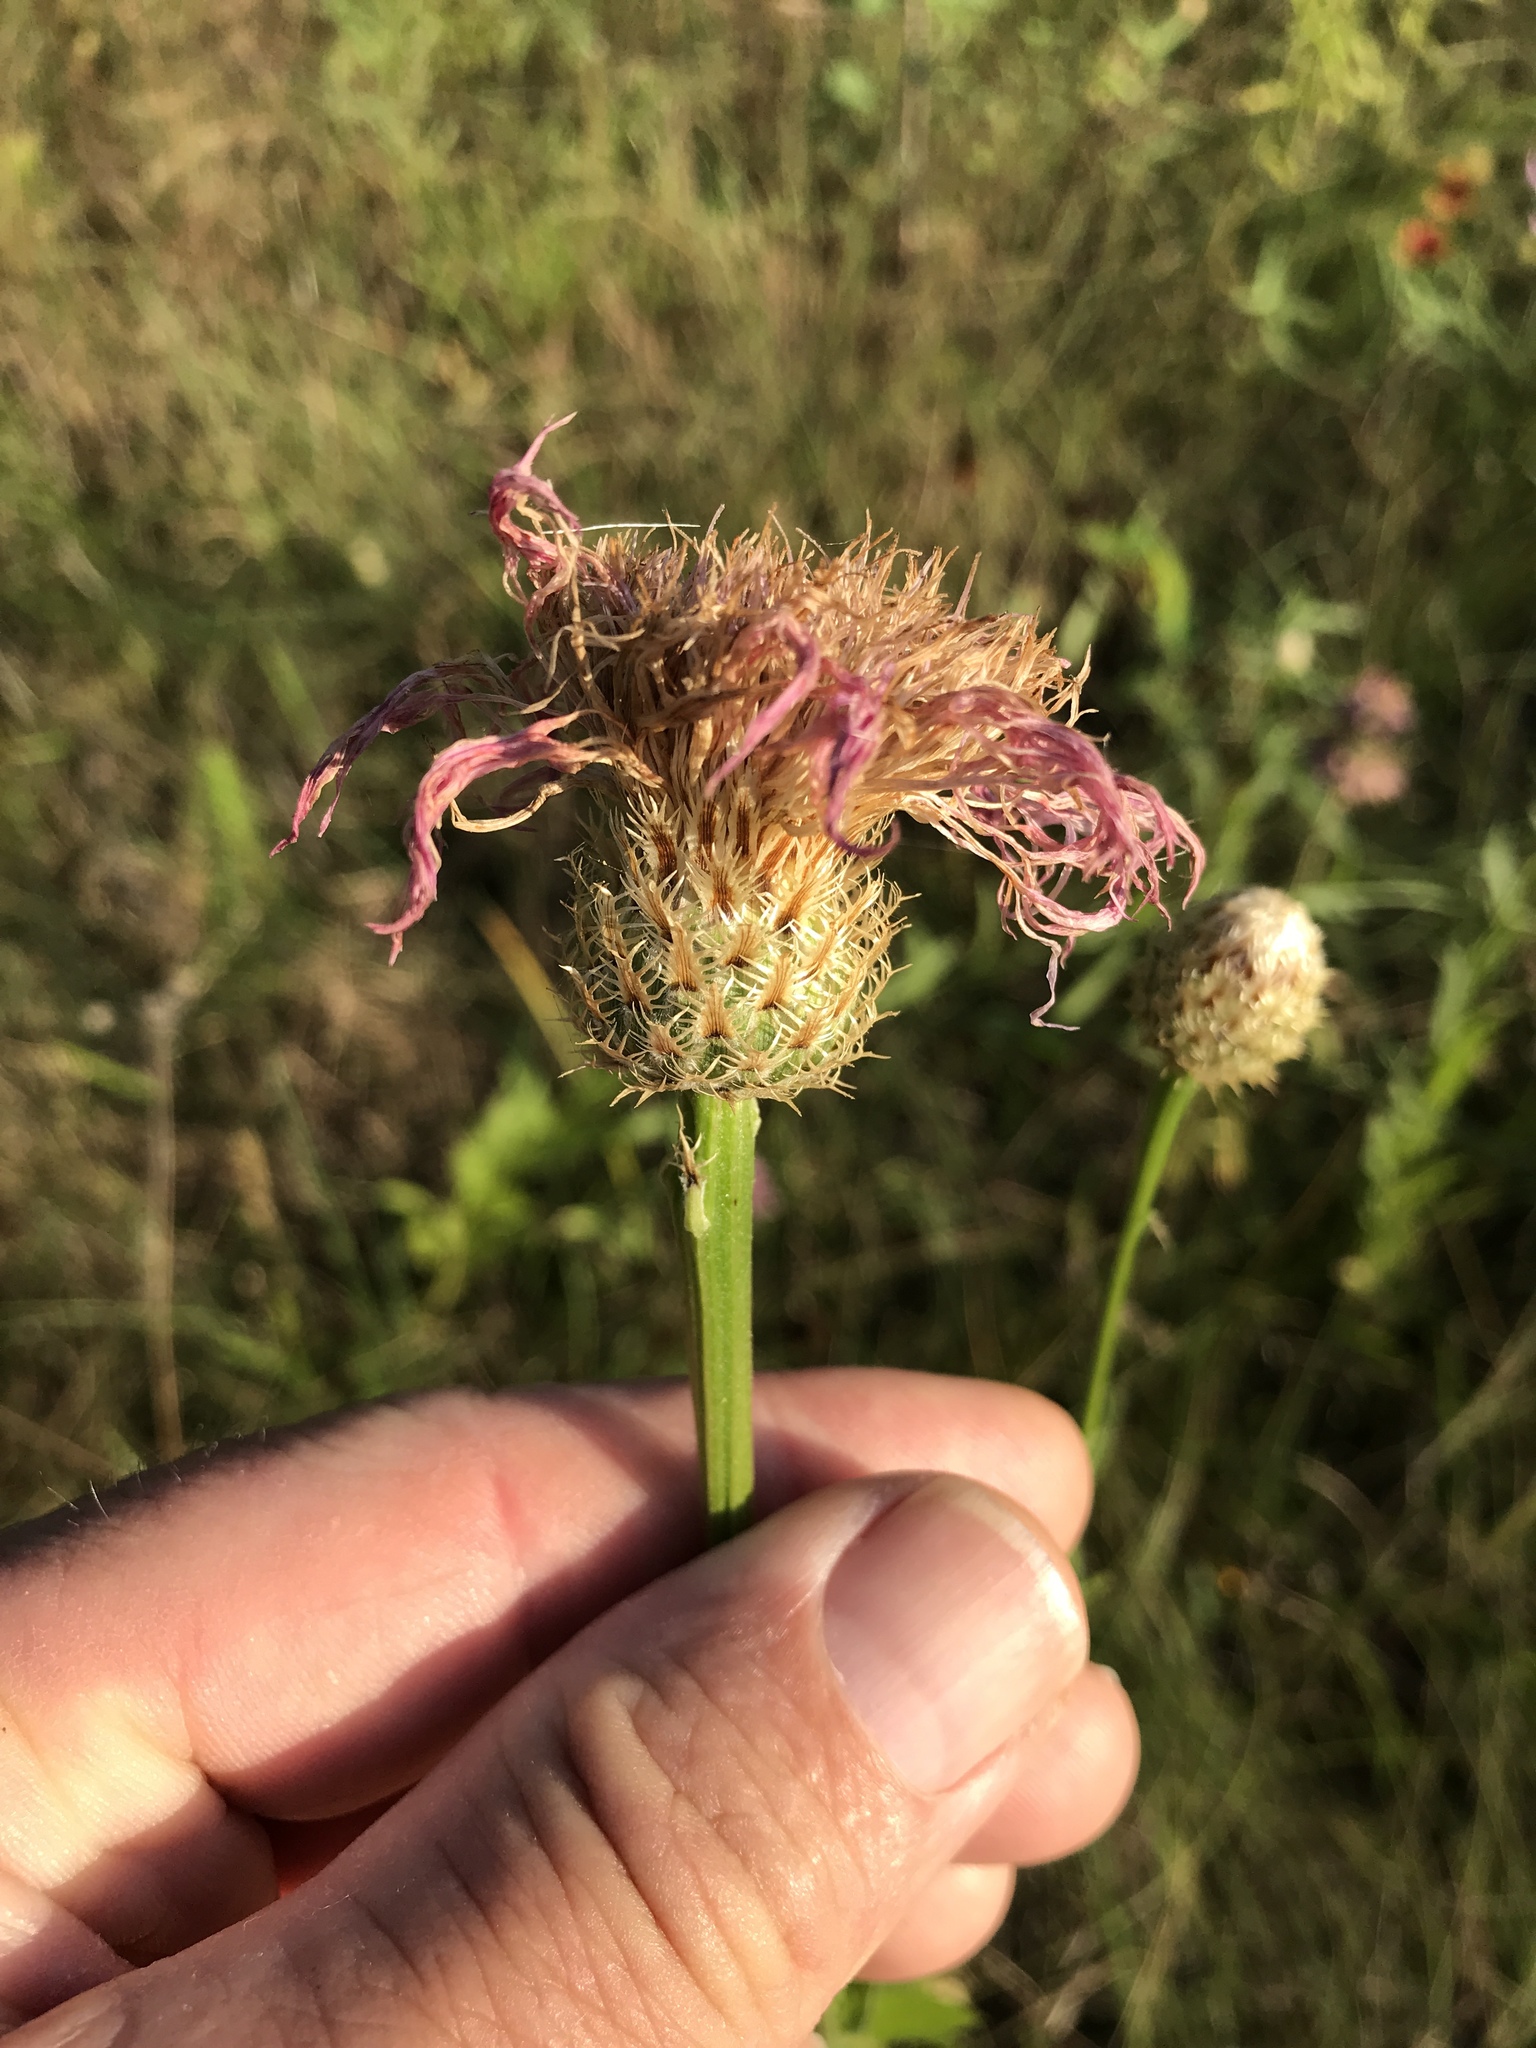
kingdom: Plantae
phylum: Tracheophyta
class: Magnoliopsida
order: Asterales
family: Asteraceae
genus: Plectocephalus
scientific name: Plectocephalus americanus
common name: American basket-flower
